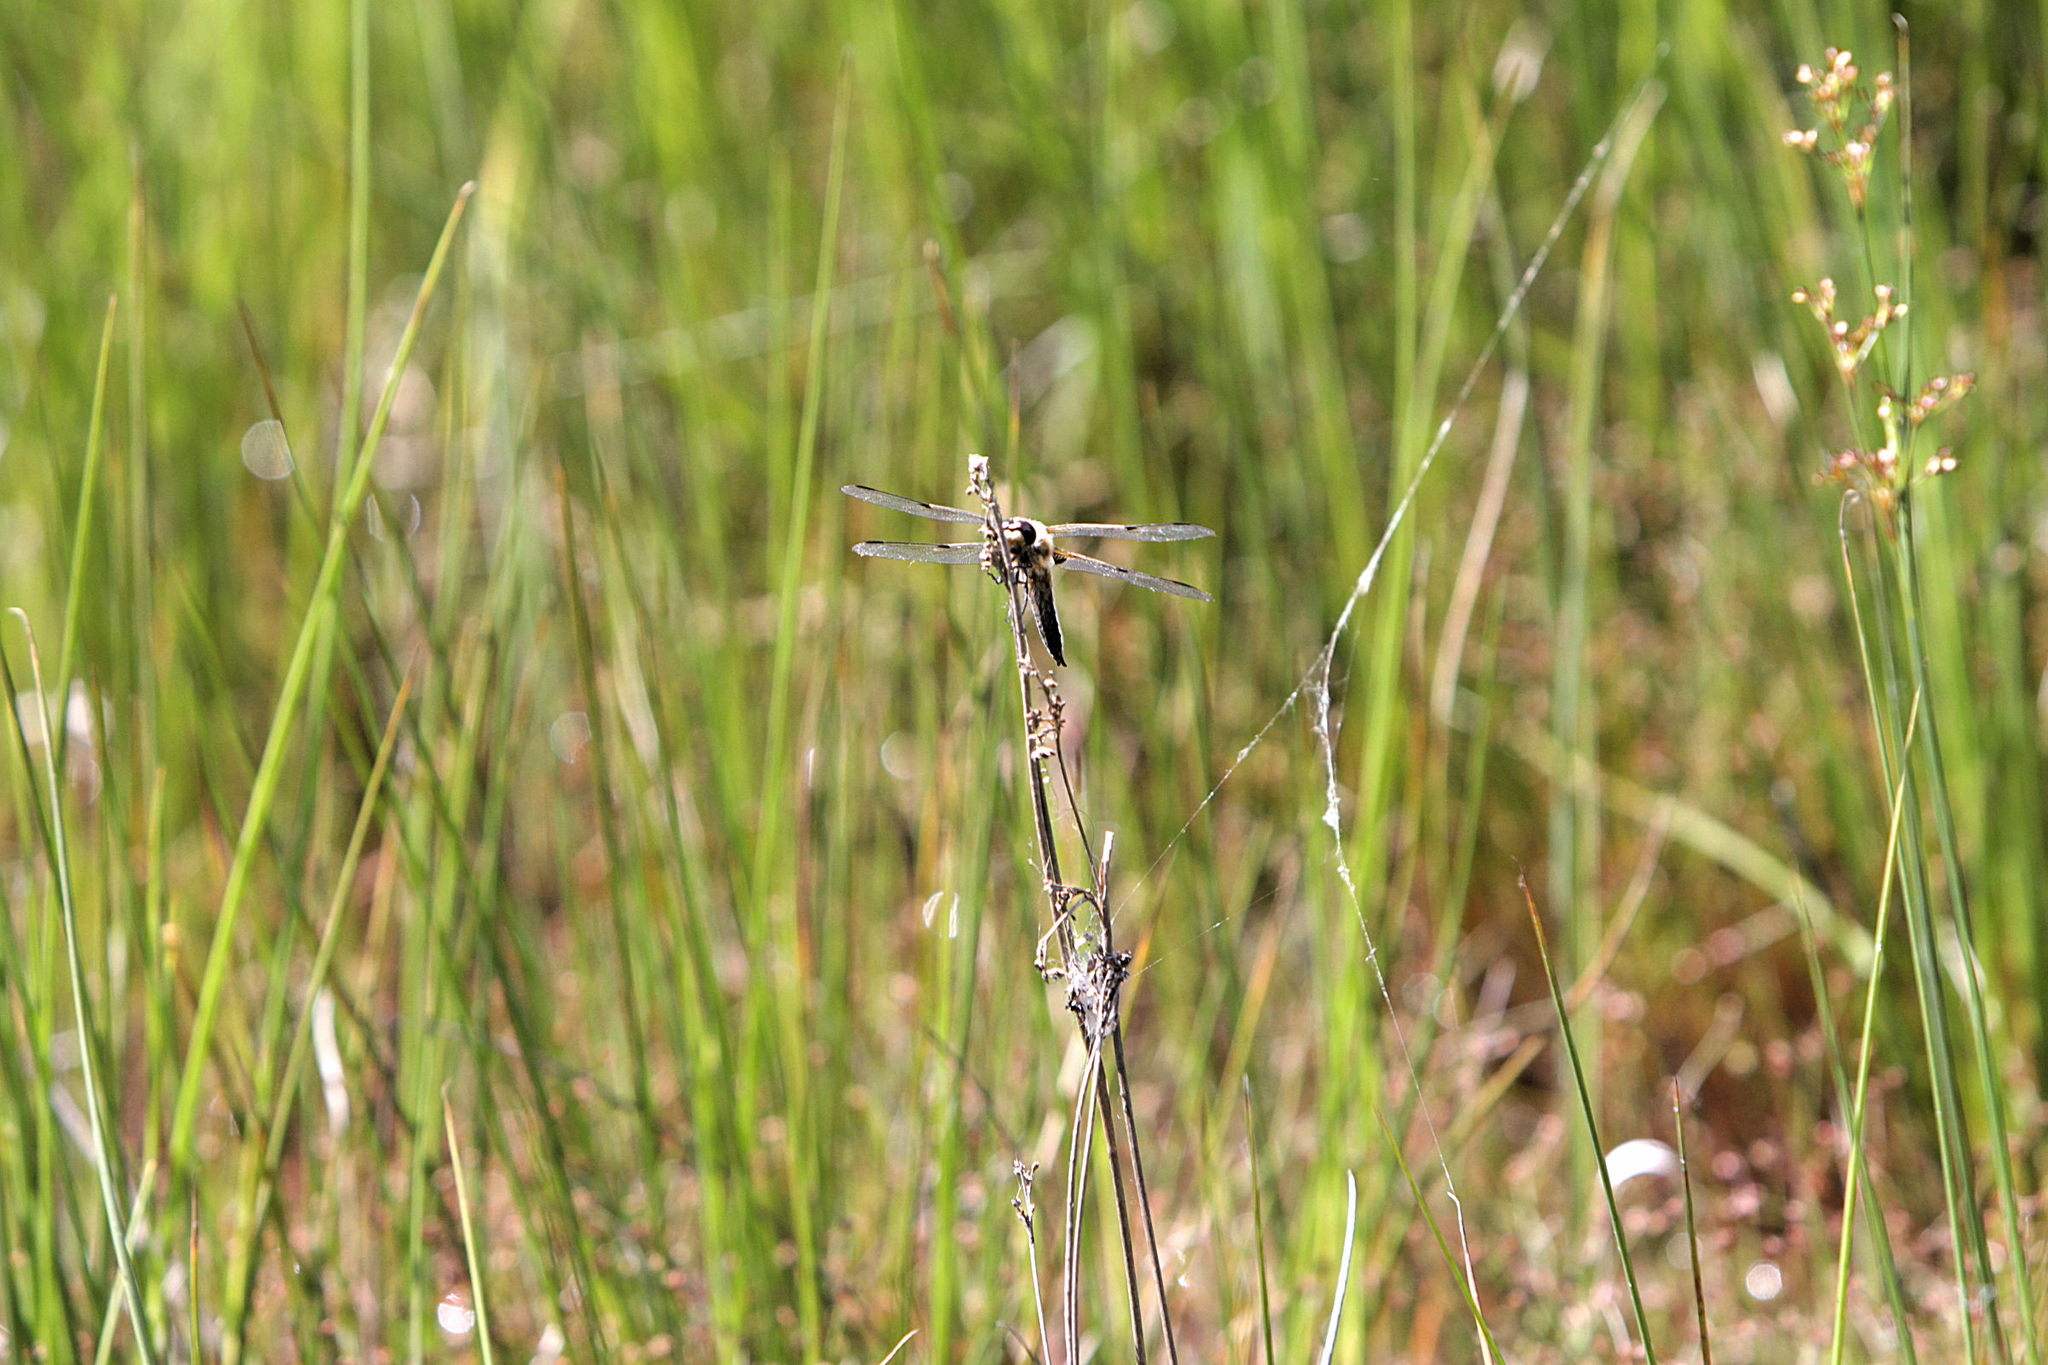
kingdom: Animalia
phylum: Arthropoda
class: Insecta
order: Odonata
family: Libellulidae
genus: Libellula
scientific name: Libellula quadrimaculata
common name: Four-spotted chaser
